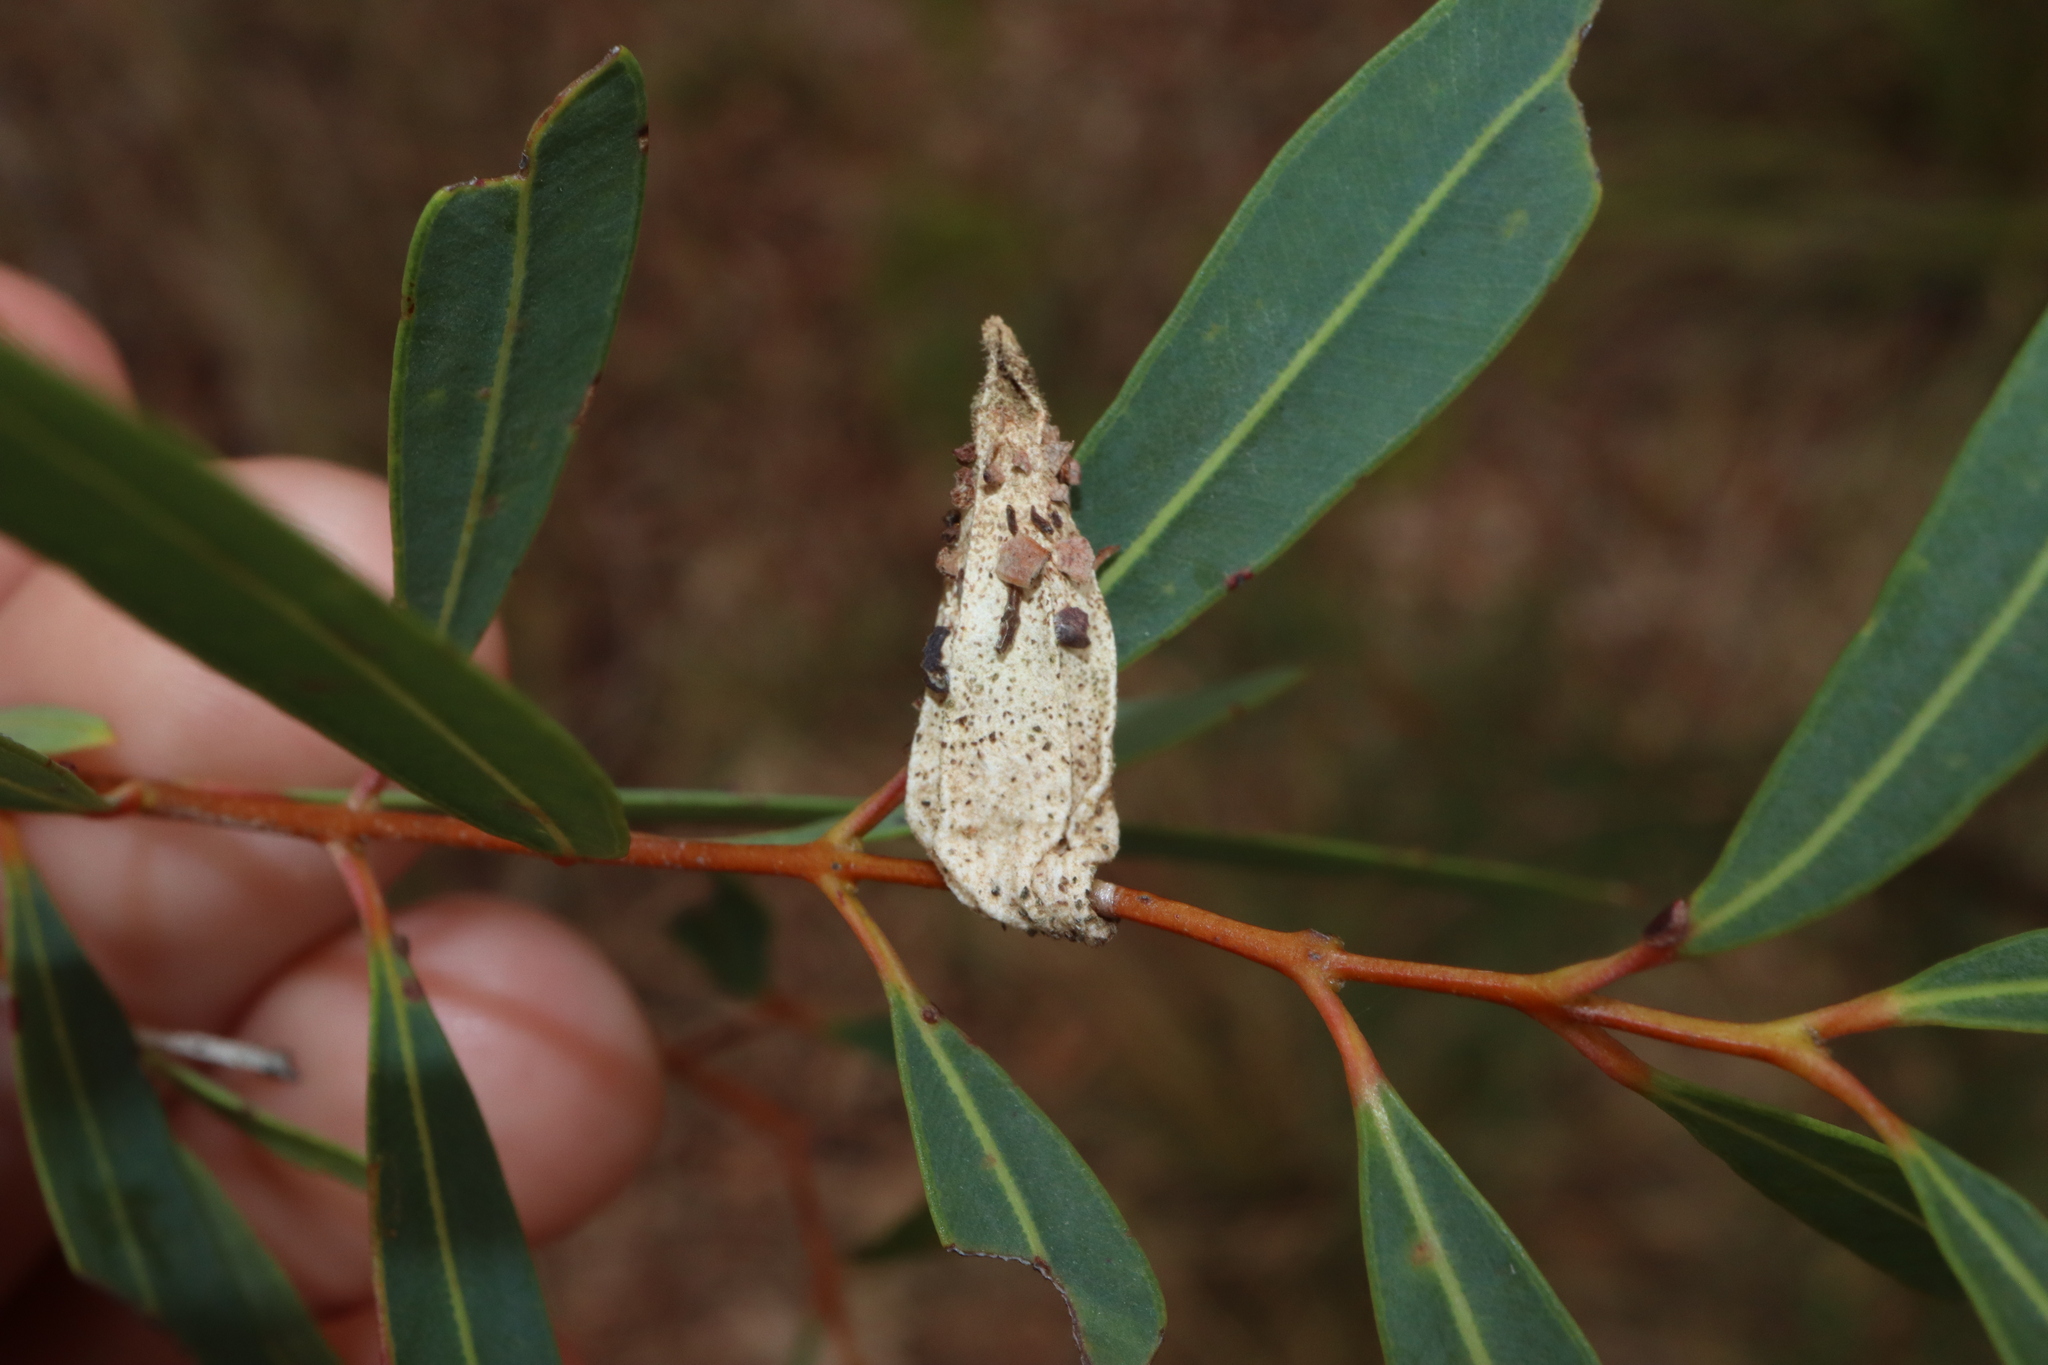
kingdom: Animalia
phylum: Arthropoda
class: Insecta
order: Lepidoptera
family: Psychidae
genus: Hyalarcta
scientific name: Hyalarcta nigrescens
